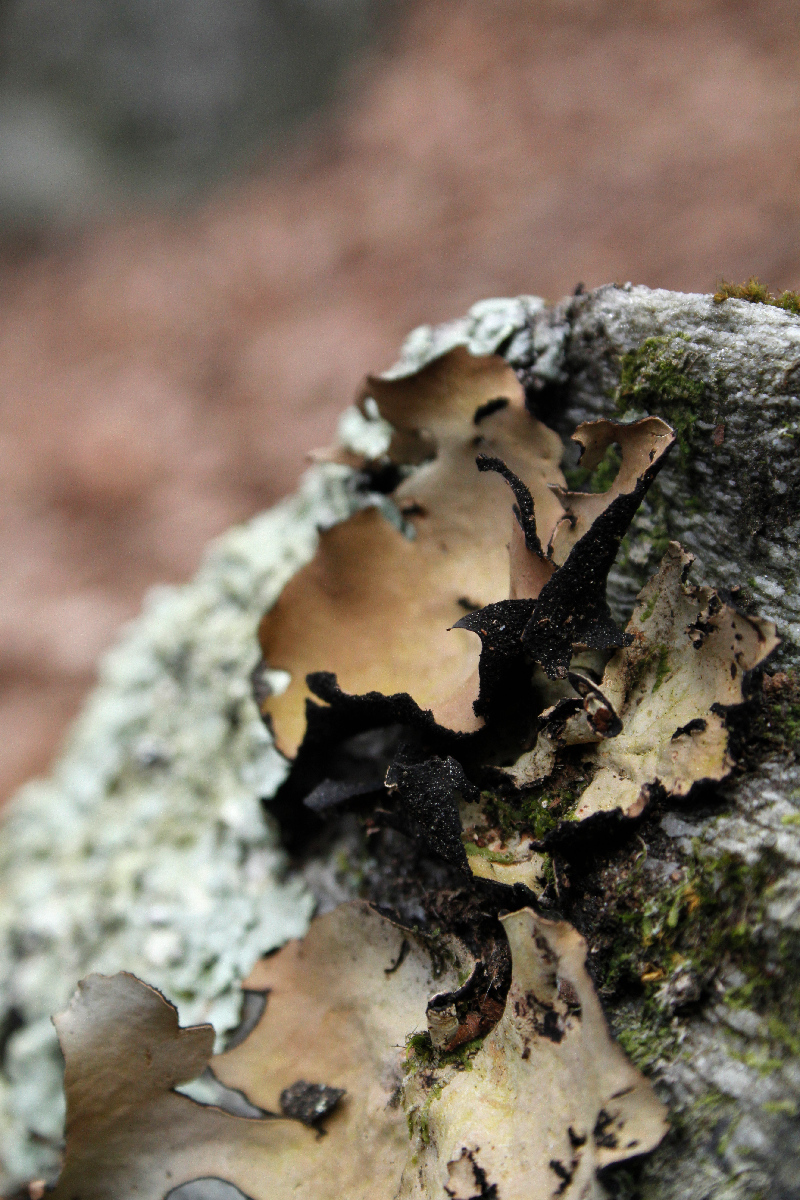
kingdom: Fungi
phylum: Ascomycota
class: Lecanoromycetes
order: Umbilicariales
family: Umbilicariaceae
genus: Umbilicaria
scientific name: Umbilicaria mammulata
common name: Smooth rock tripe
